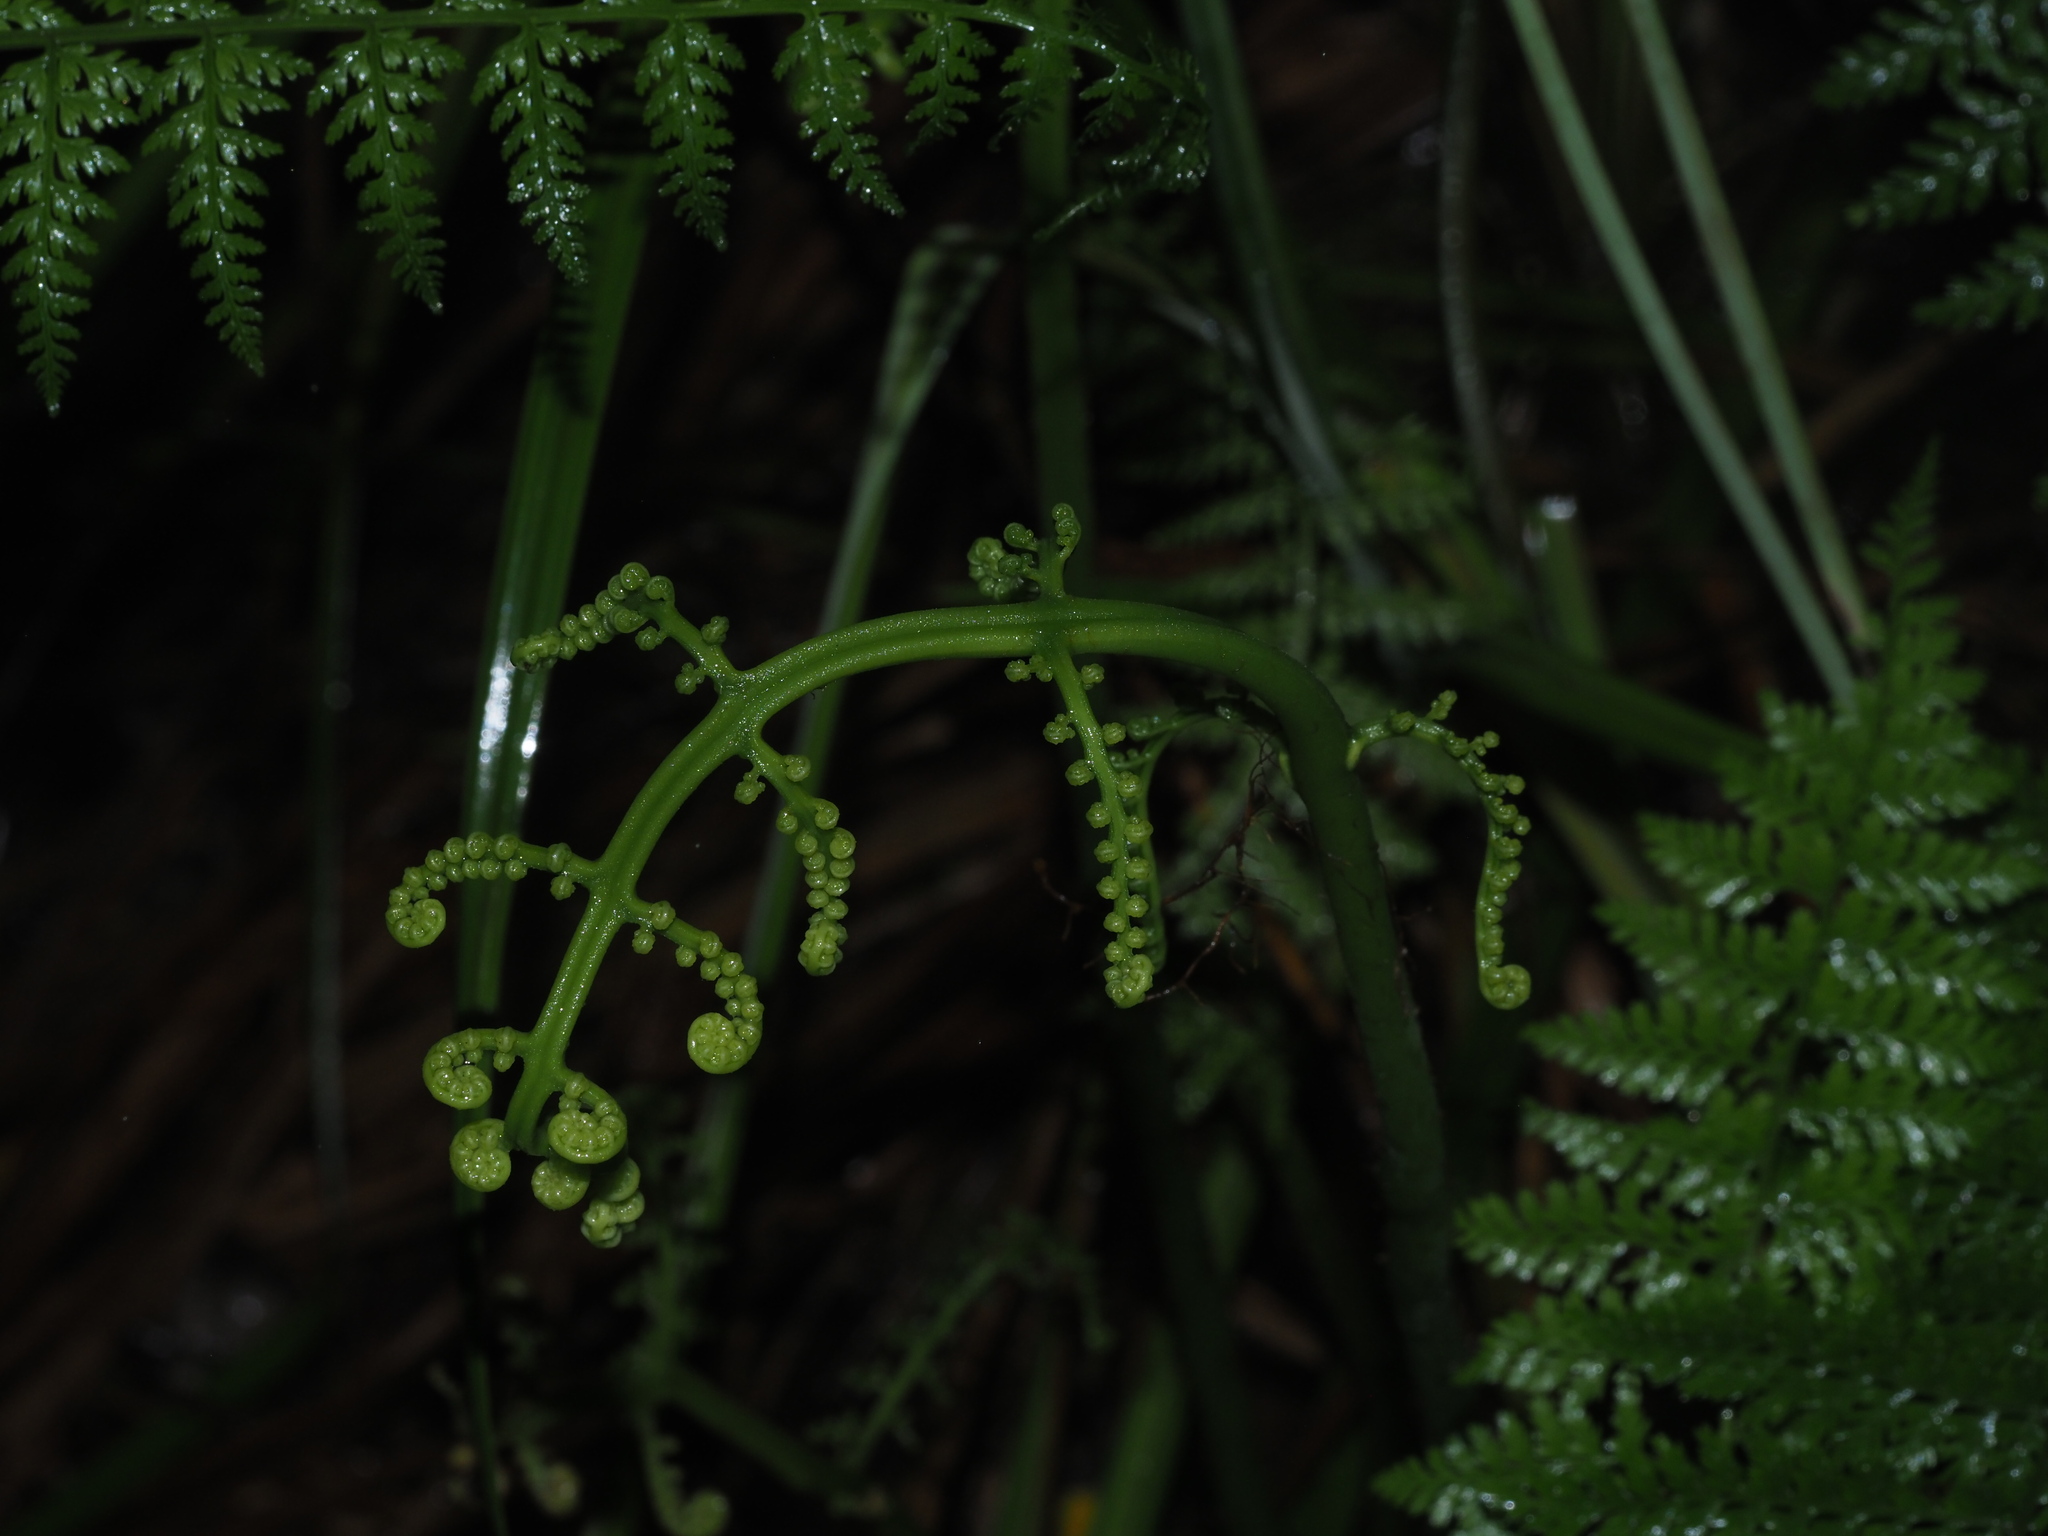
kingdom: Plantae
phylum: Tracheophyta
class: Polypodiopsida
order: Polypodiales
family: Athyriaceae
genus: Diplazium
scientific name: Diplazium sandwichianum
